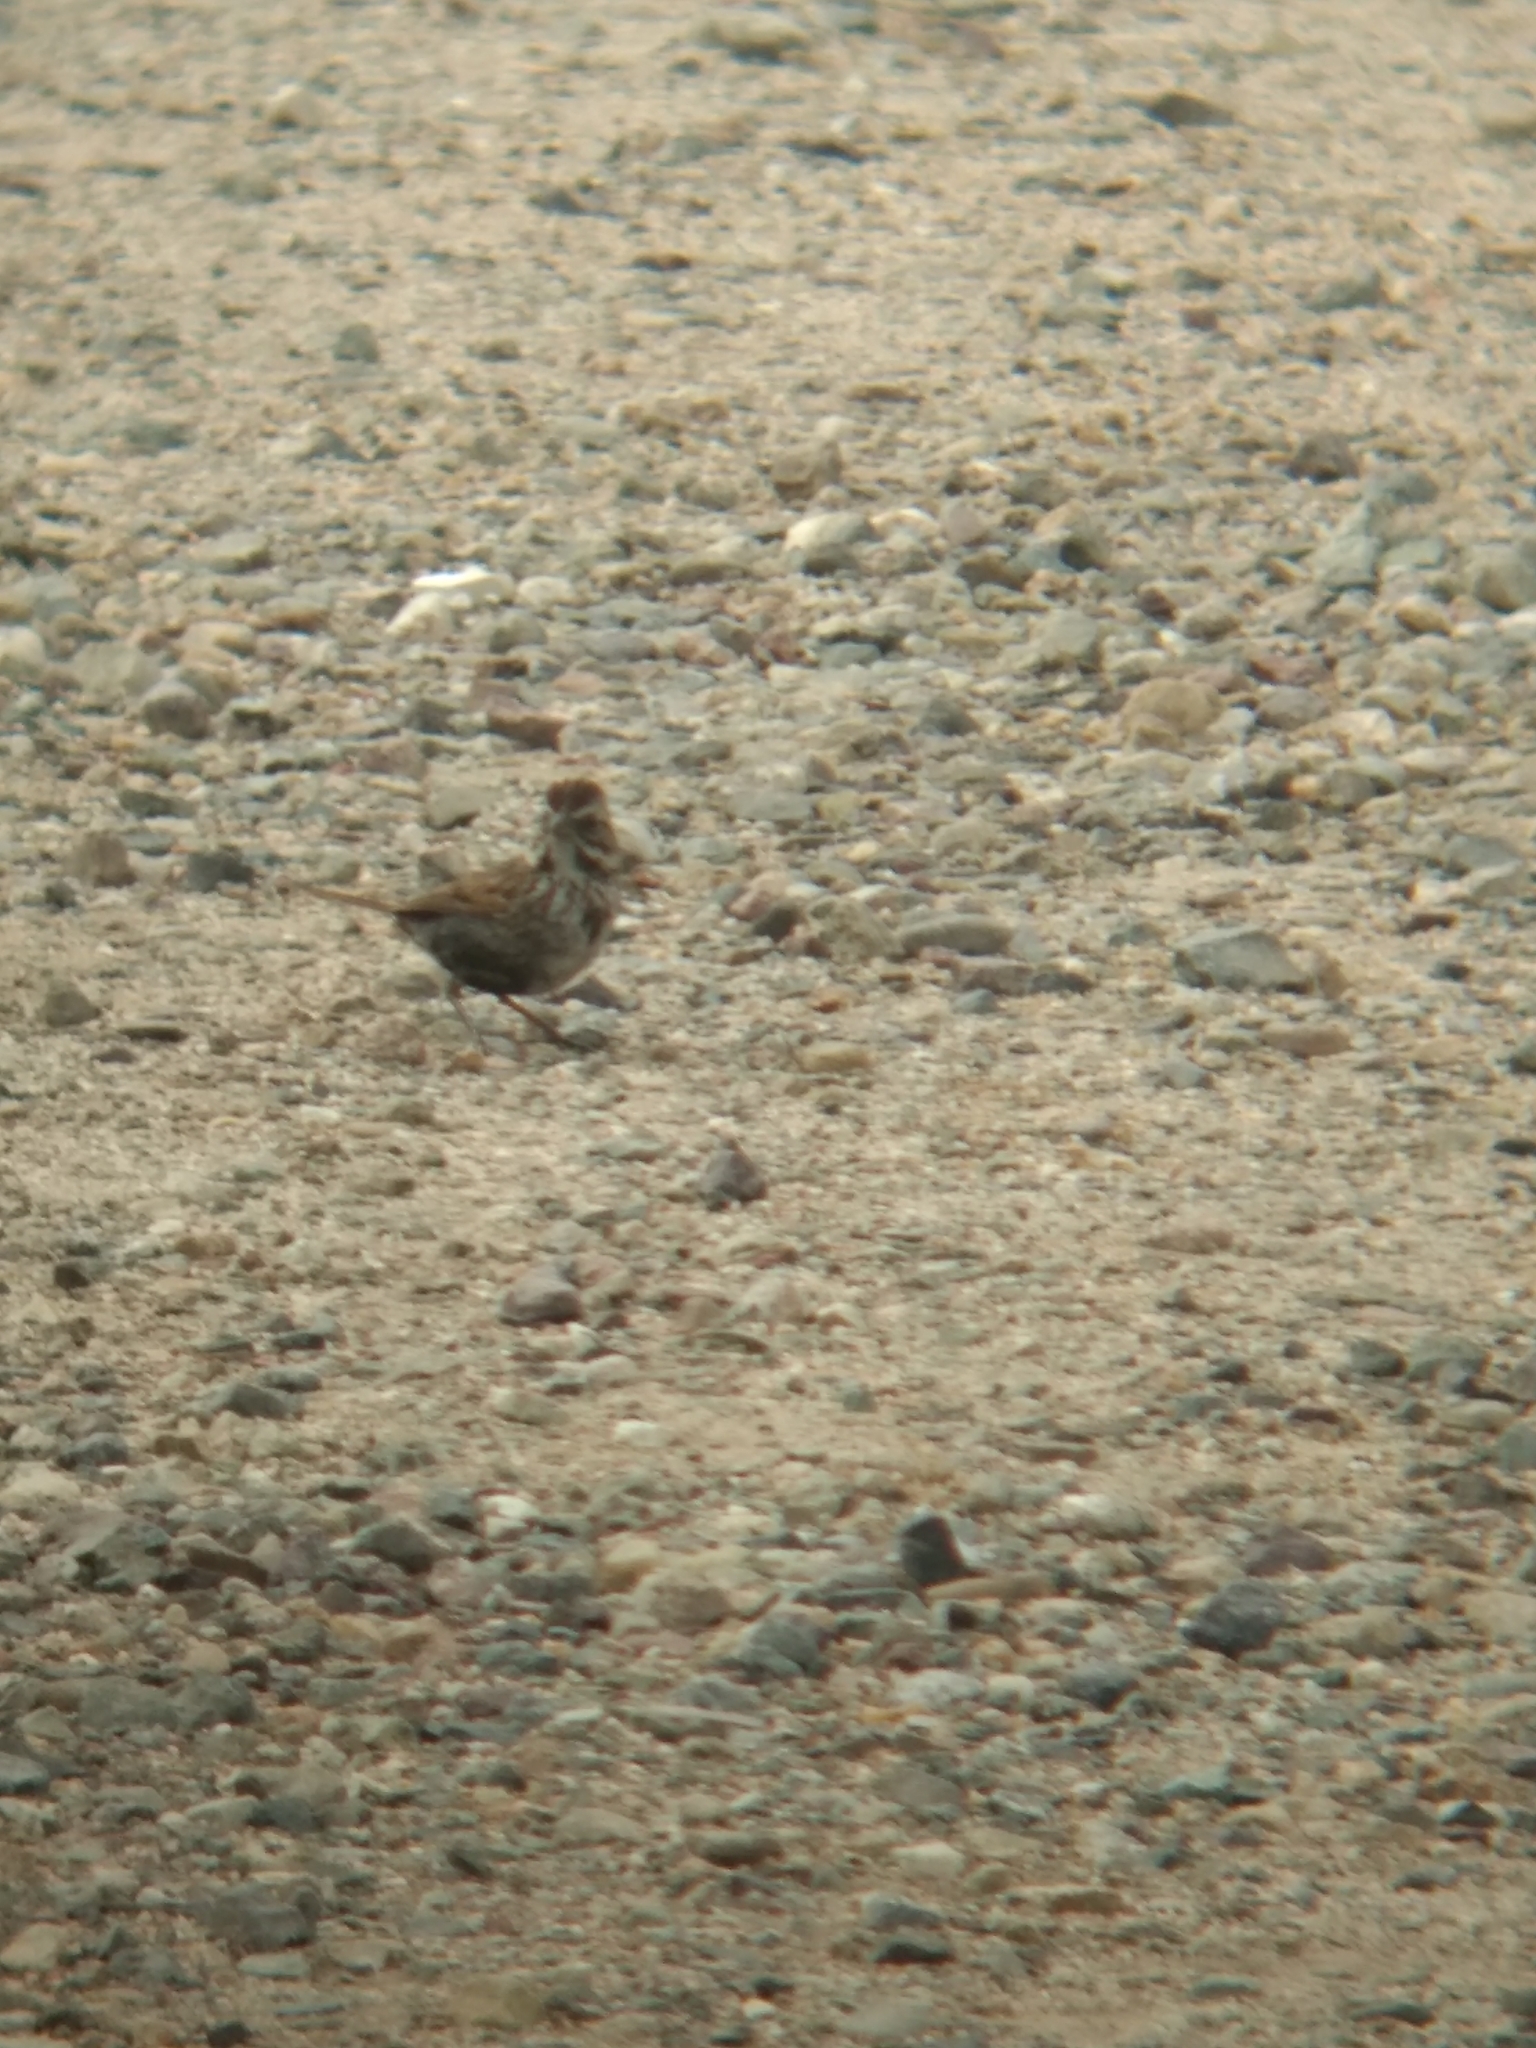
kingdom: Animalia
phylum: Chordata
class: Aves
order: Passeriformes
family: Passerellidae
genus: Melospiza
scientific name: Melospiza melodia
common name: Song sparrow
